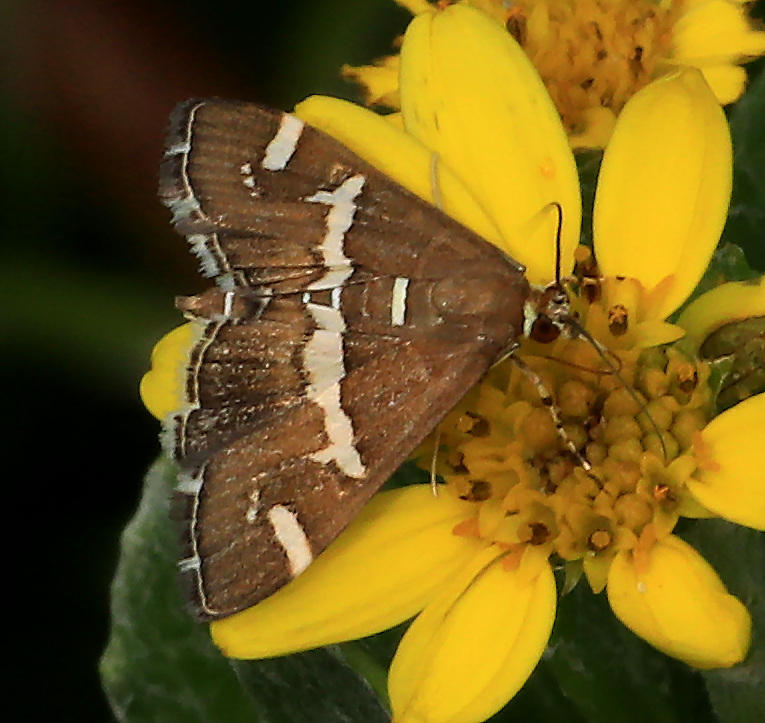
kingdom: Animalia
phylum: Arthropoda
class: Insecta
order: Lepidoptera
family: Crambidae
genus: Spoladea
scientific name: Spoladea recurvalis
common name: Beet webworm moth
